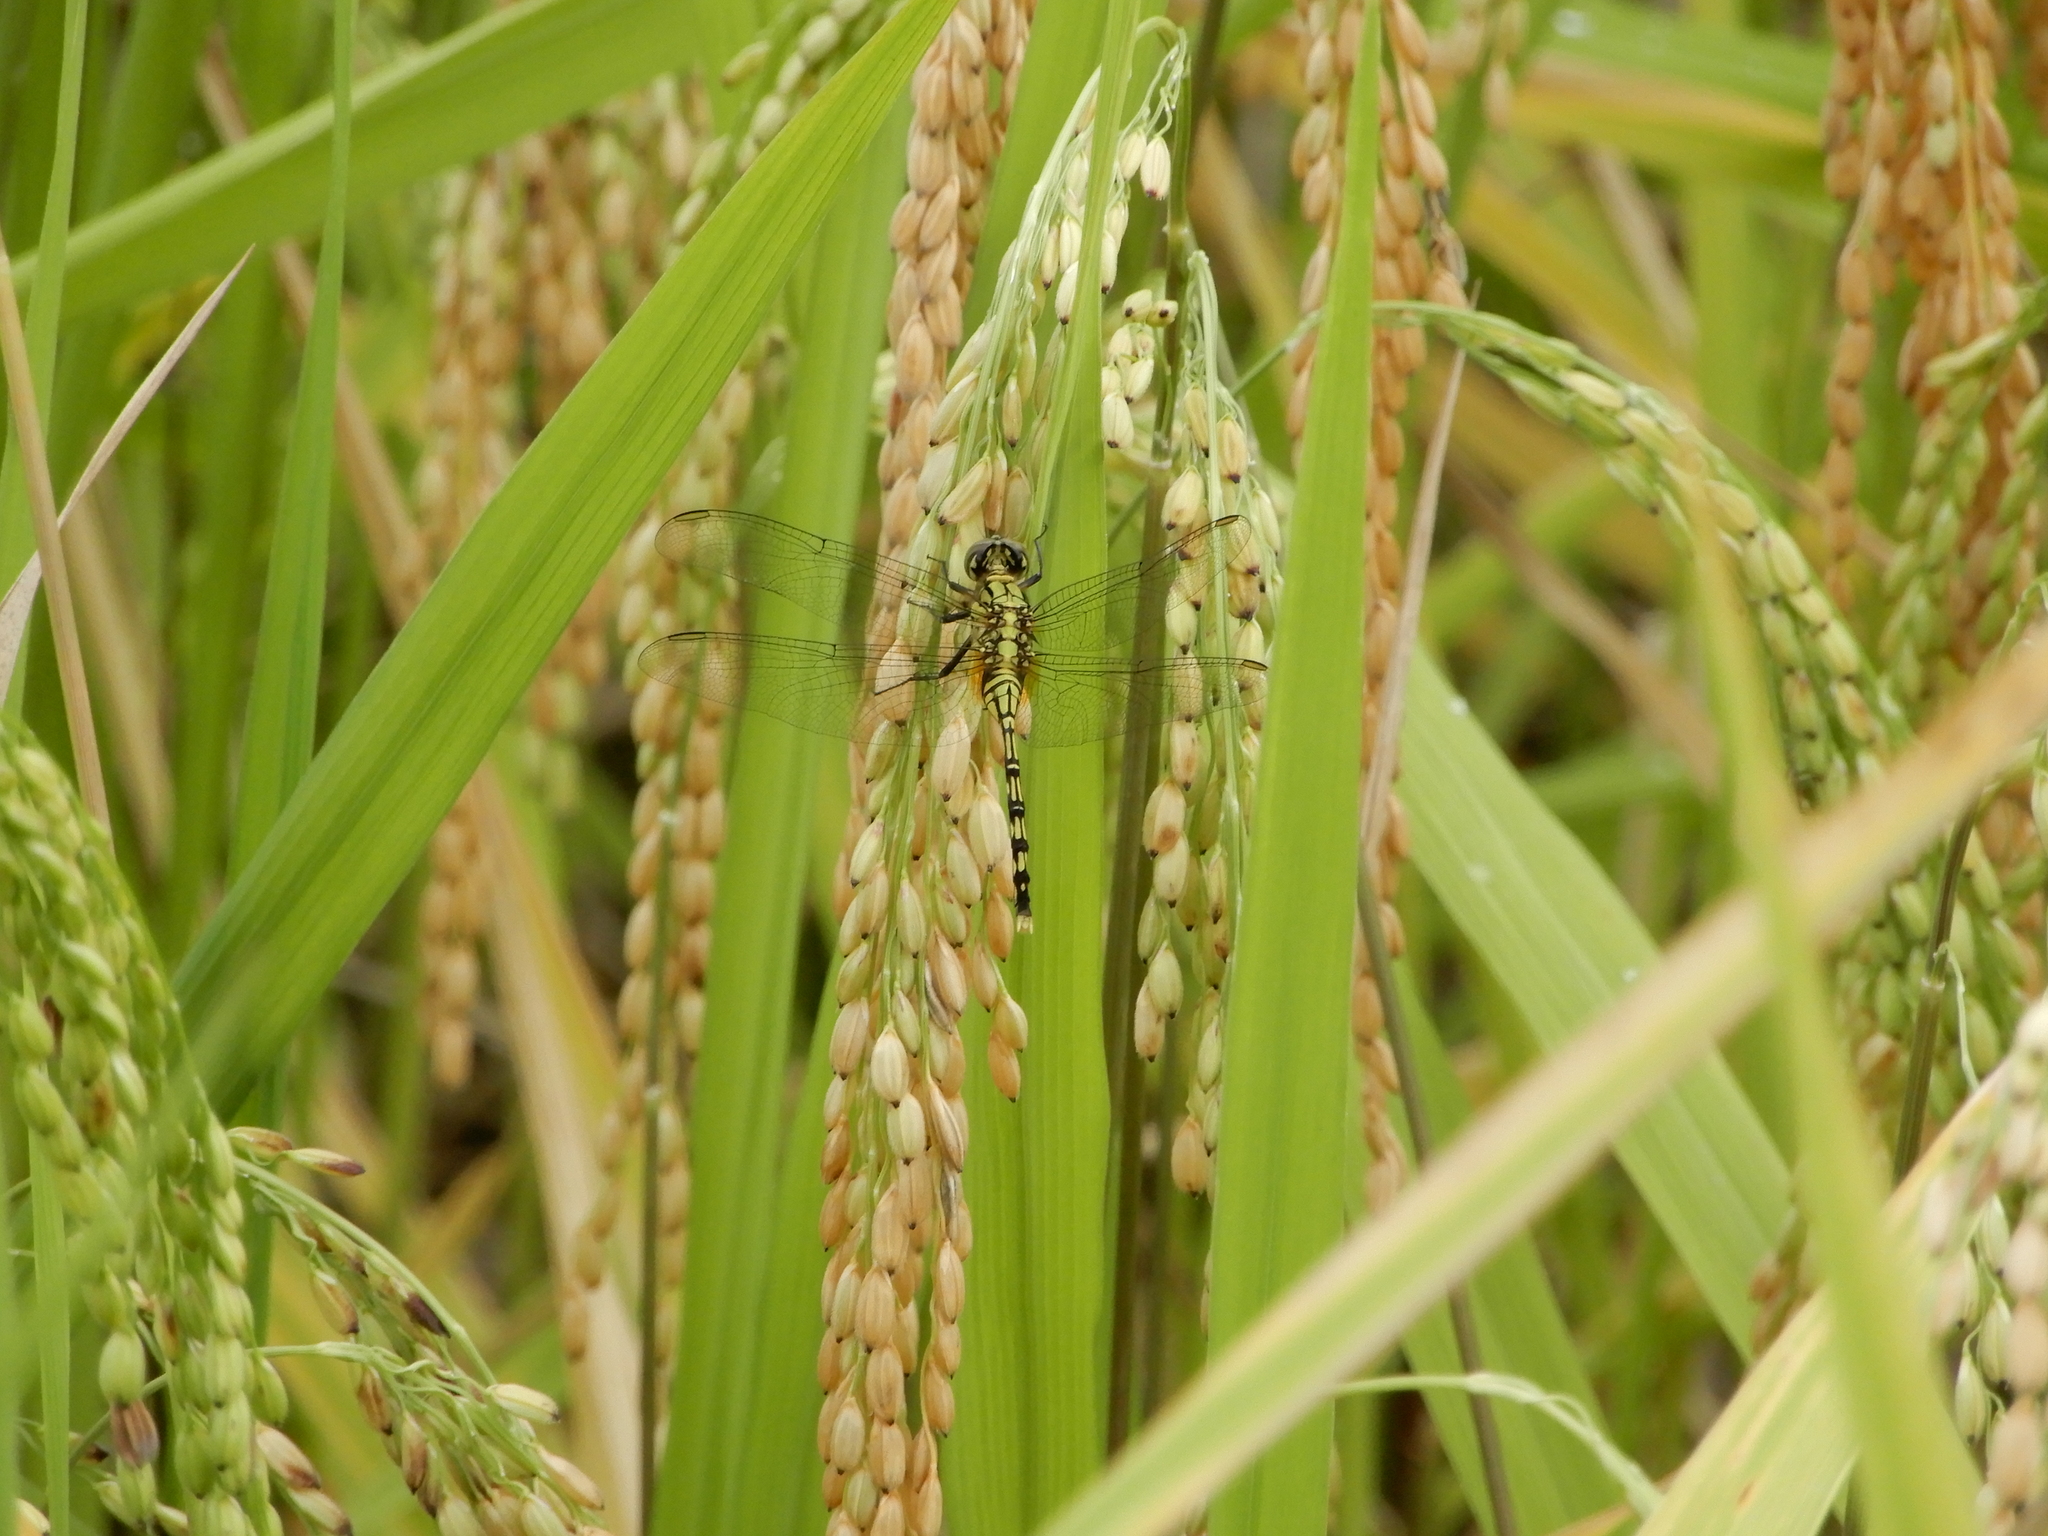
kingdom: Animalia
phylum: Arthropoda
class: Insecta
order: Odonata
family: Libellulidae
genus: Orthetrum
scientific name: Orthetrum serapia
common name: Green skimmer
